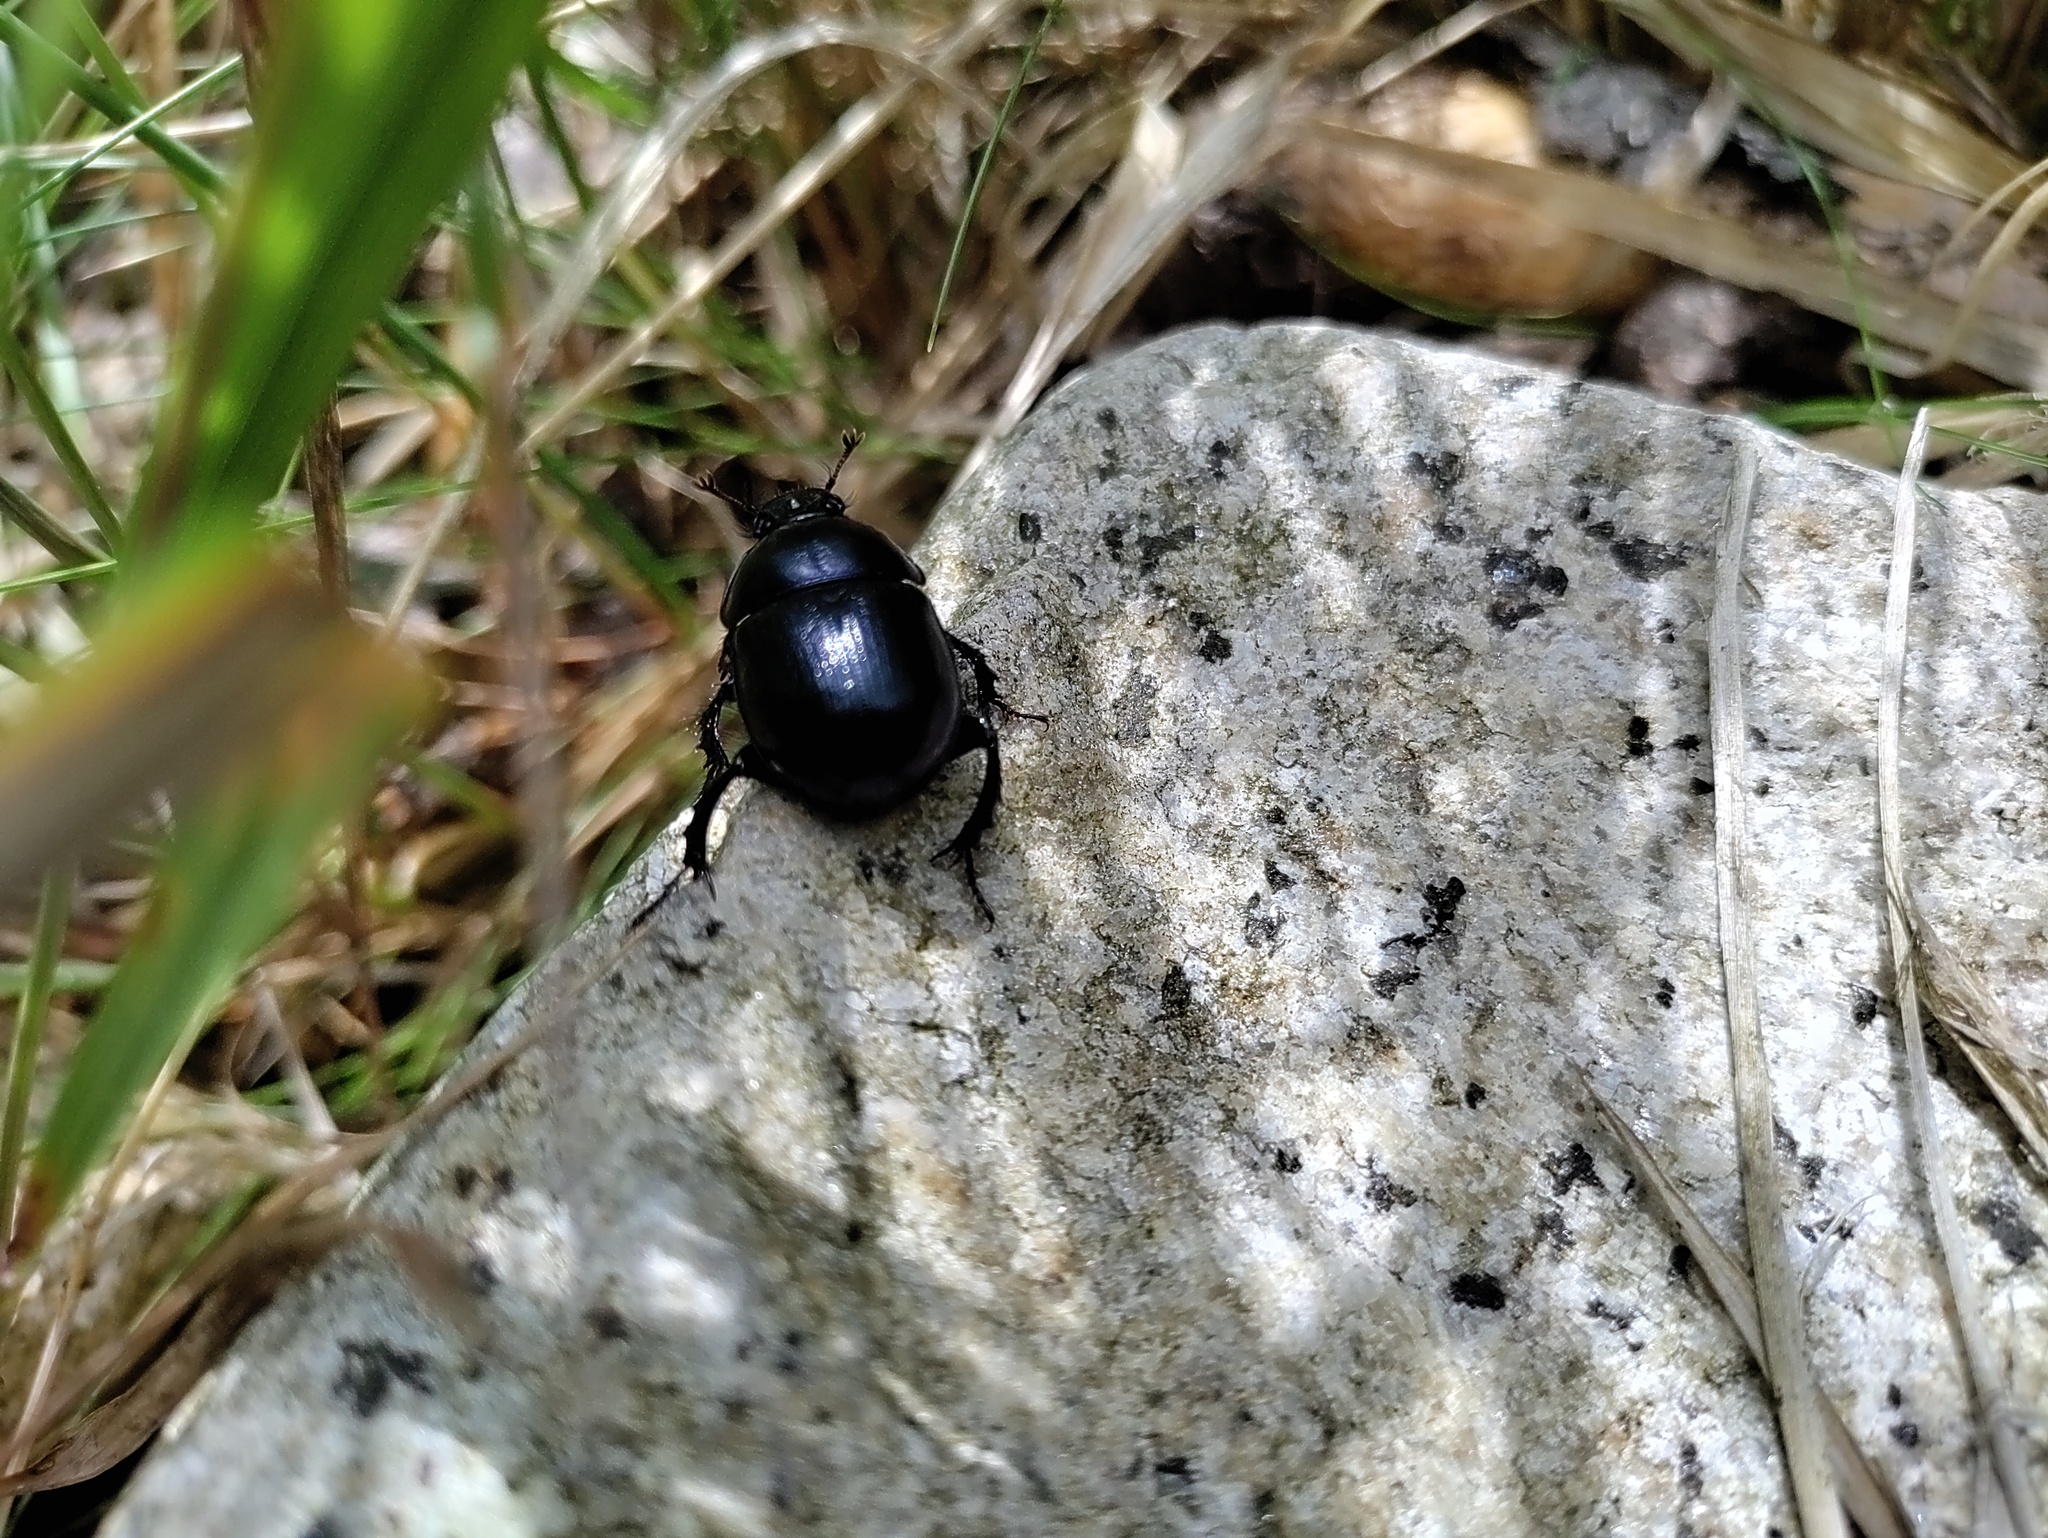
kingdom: Animalia
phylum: Arthropoda
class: Insecta
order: Coleoptera
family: Geotrupidae
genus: Anoplotrupes
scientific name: Anoplotrupes stercorosus
